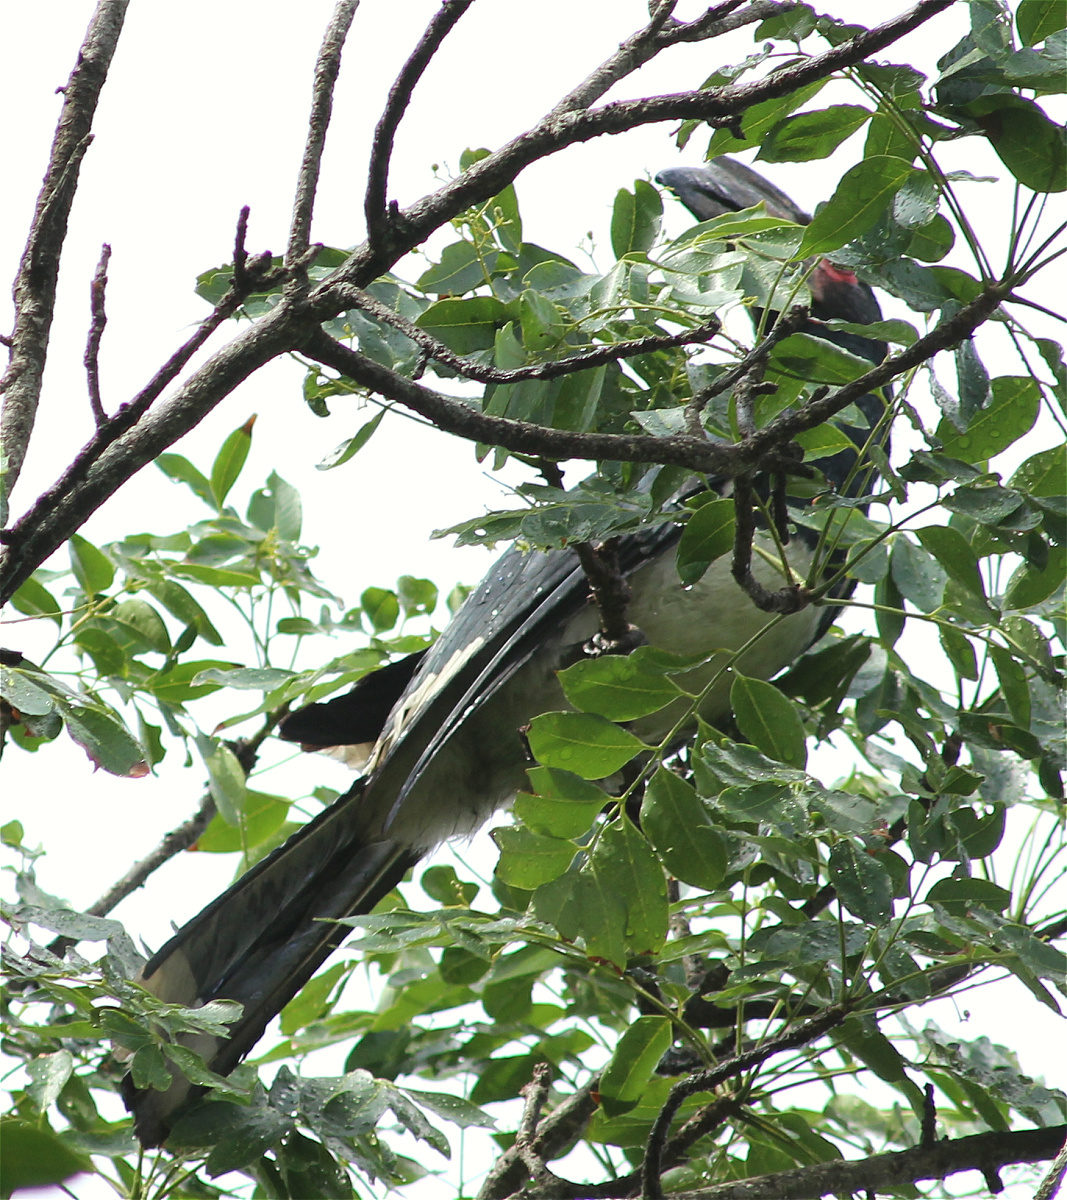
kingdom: Animalia
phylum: Chordata
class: Aves
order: Bucerotiformes
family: Bucerotidae
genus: Bycanistes
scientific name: Bycanistes bucinator
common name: Trumpeter hornbill
